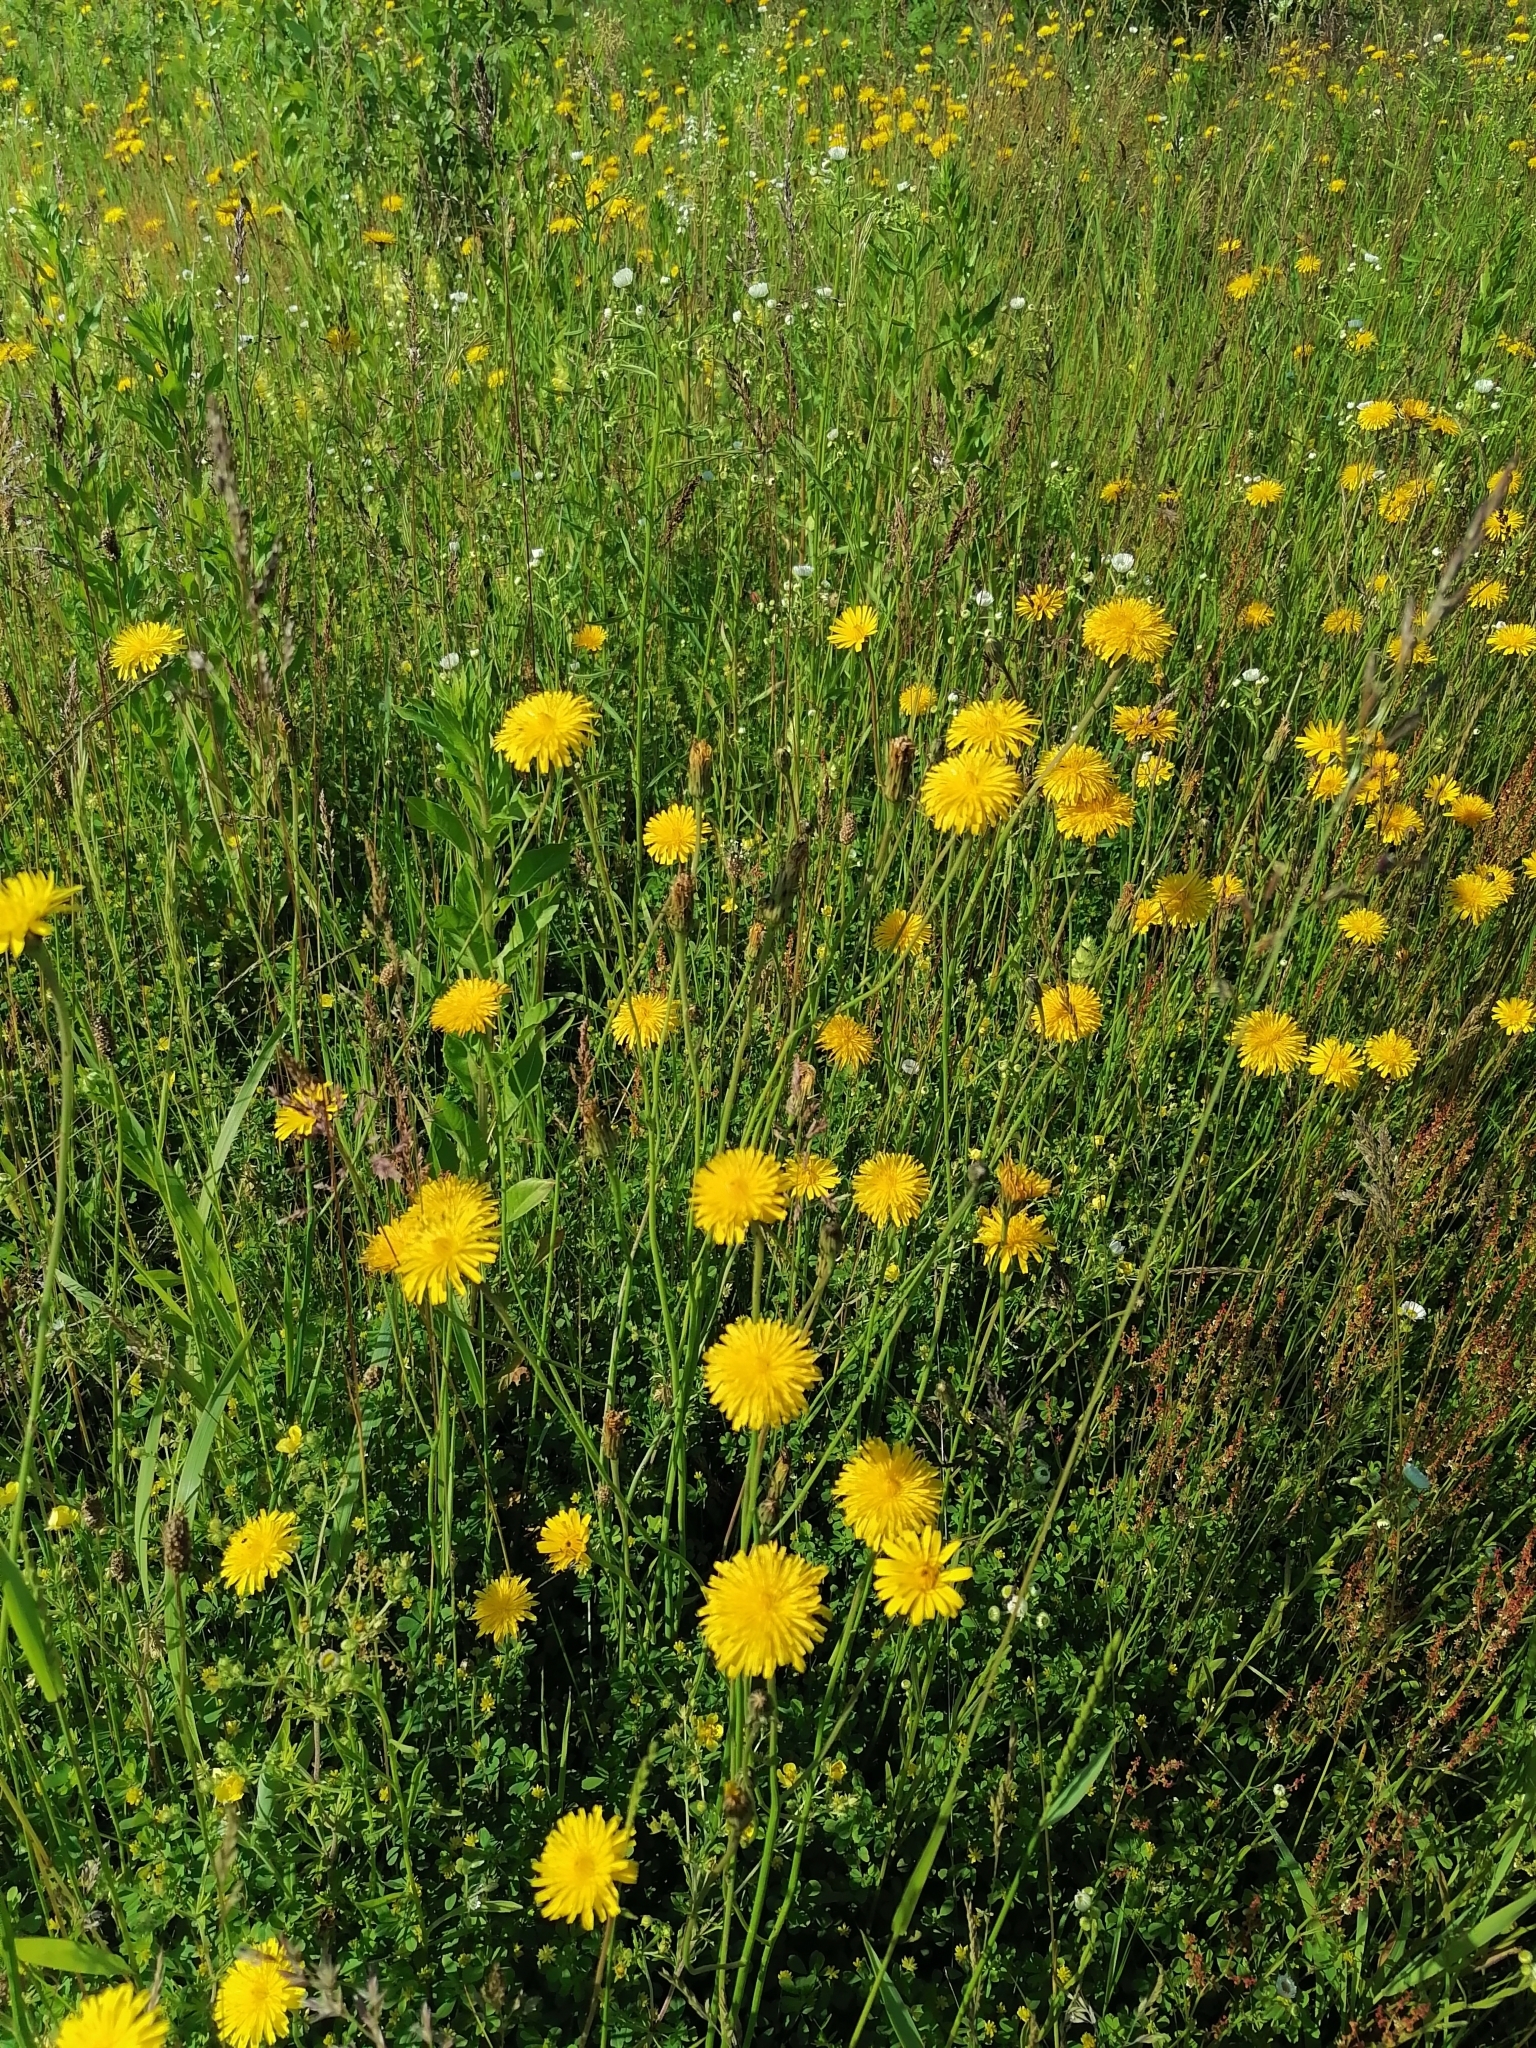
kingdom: Plantae
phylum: Tracheophyta
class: Magnoliopsida
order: Asterales
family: Asteraceae
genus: Hypochaeris
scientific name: Hypochaeris radicata
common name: Flatweed
